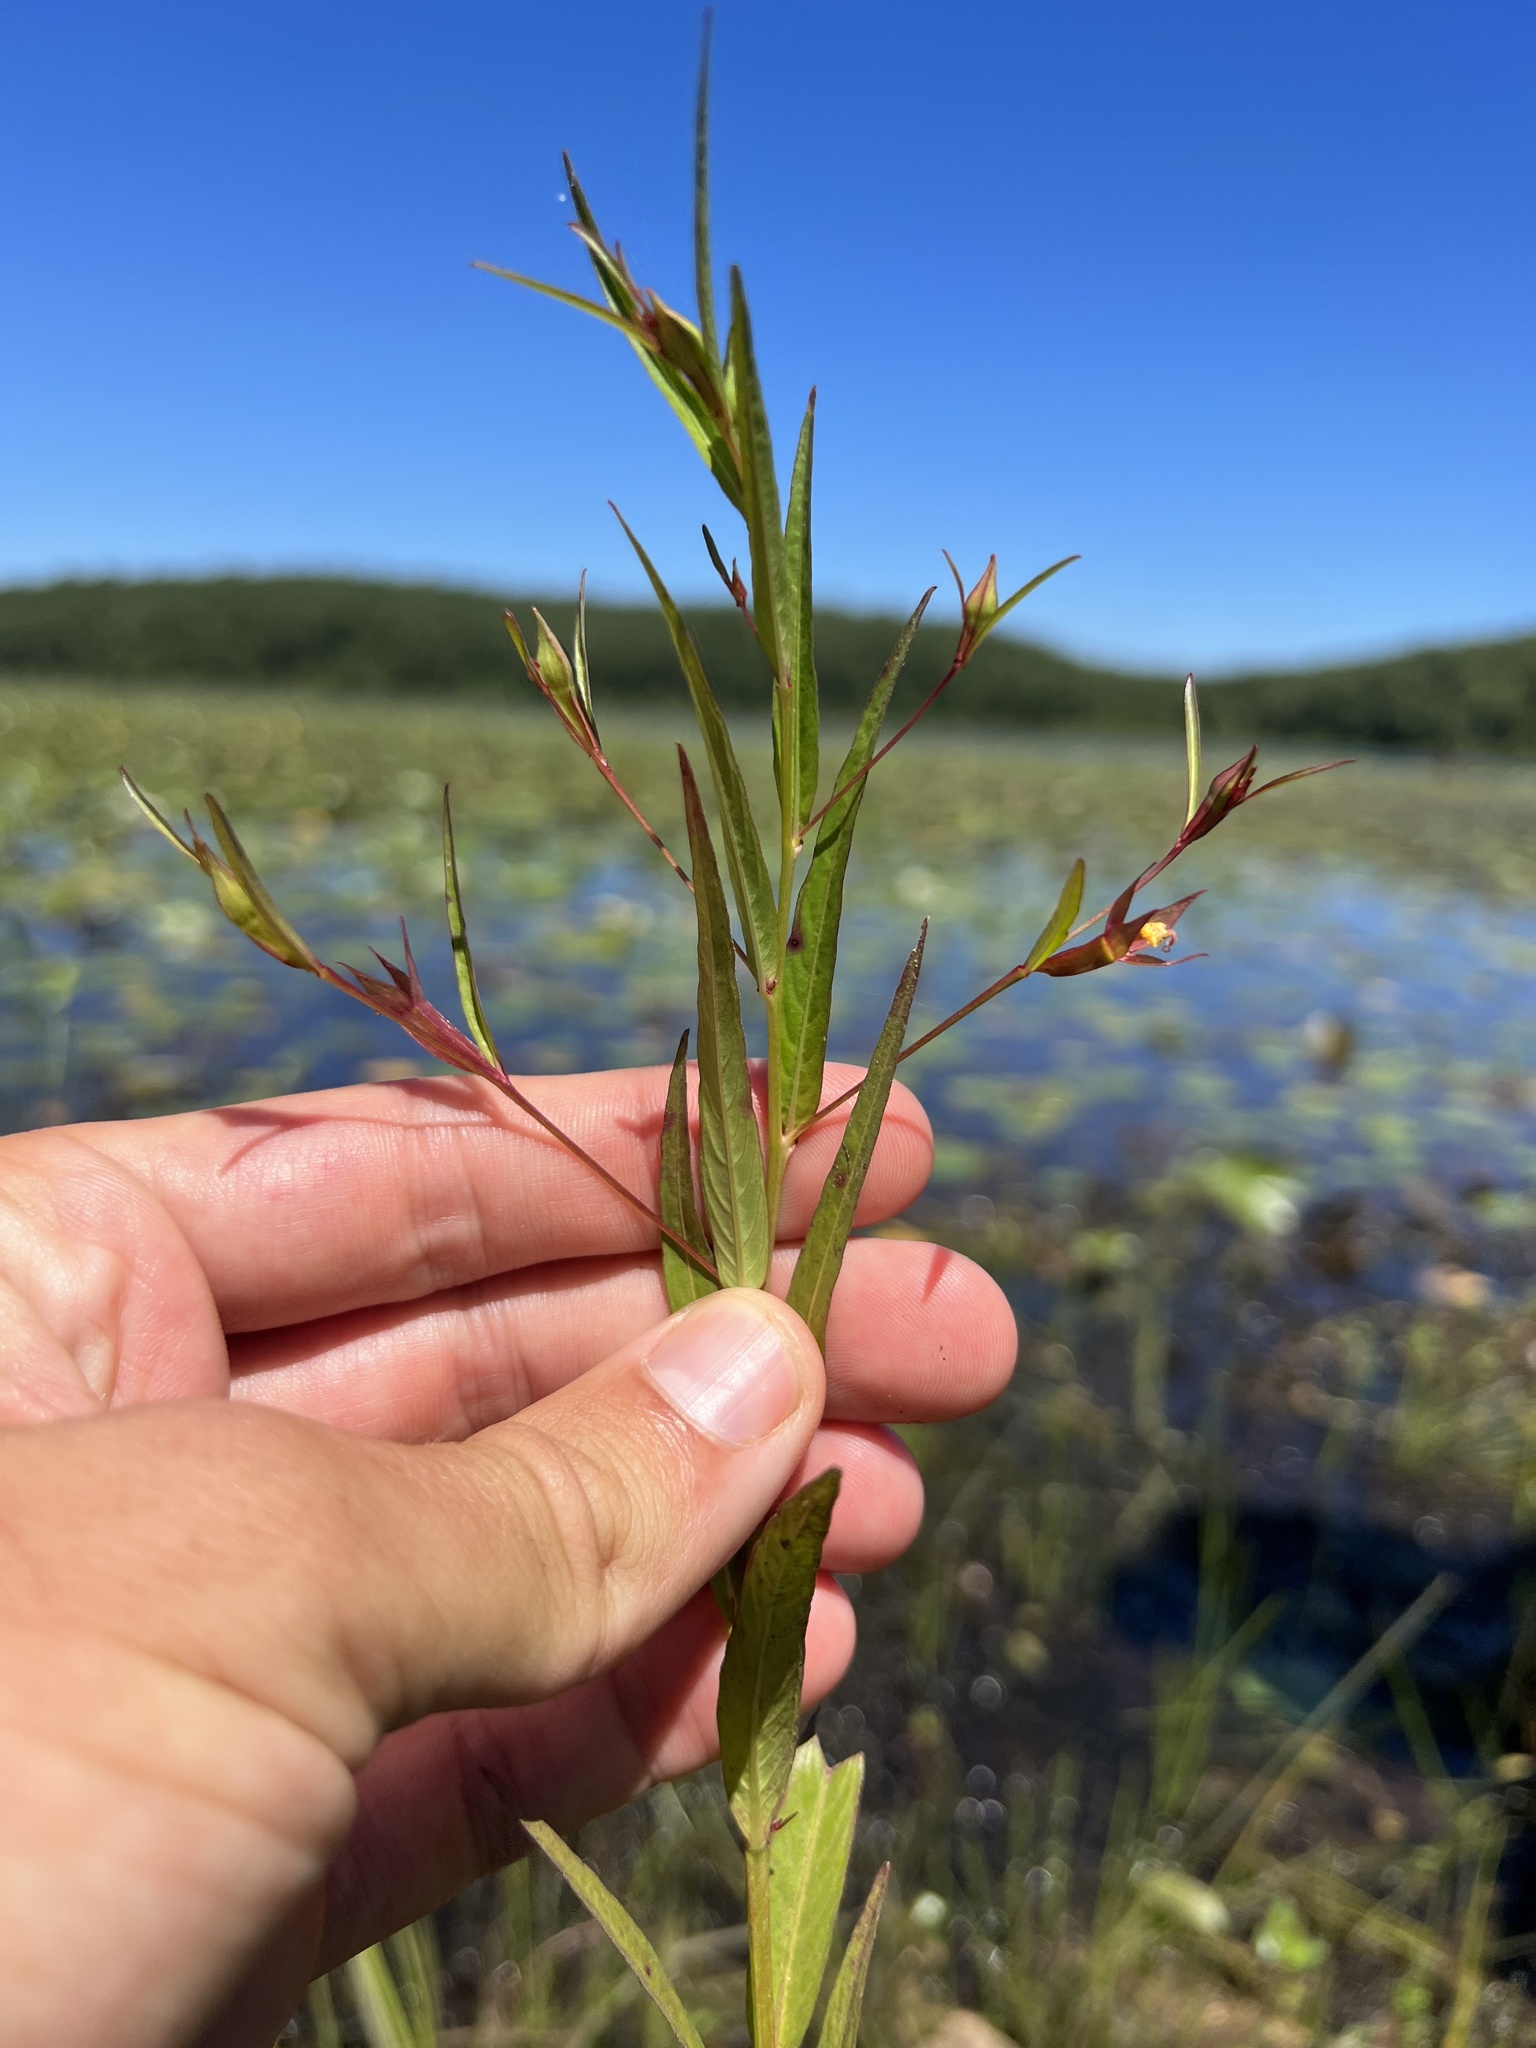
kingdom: Plantae
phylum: Tracheophyta
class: Magnoliopsida
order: Myrtales
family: Onagraceae
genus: Ludwigia
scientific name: Ludwigia decurrens
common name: Winged water-primrose
